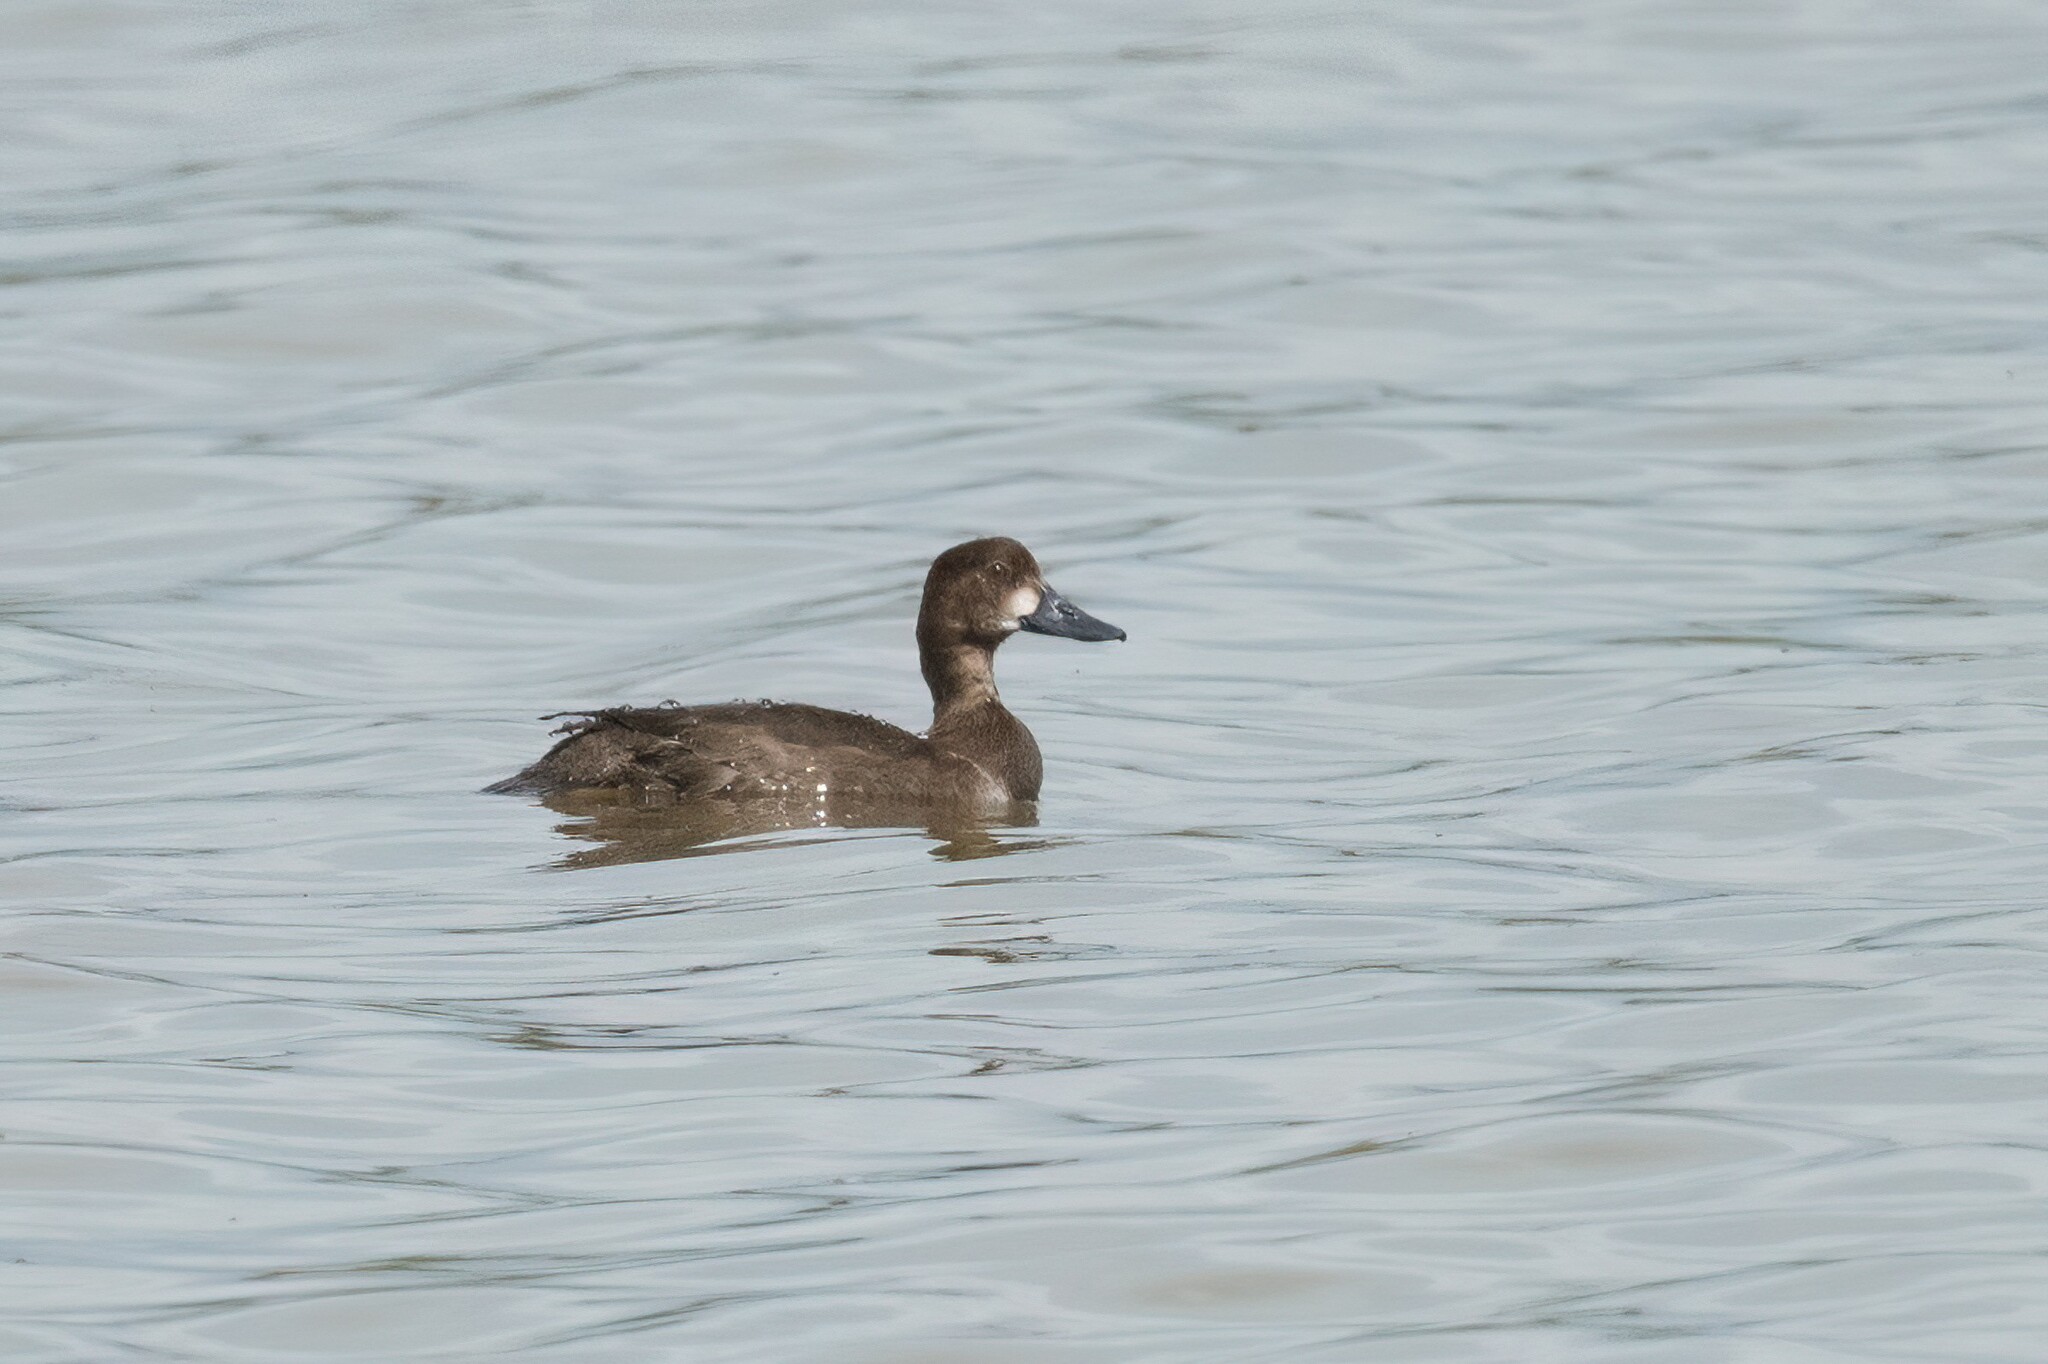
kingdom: Animalia
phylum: Chordata
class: Aves
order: Anseriformes
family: Anatidae
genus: Aythya
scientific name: Aythya affinis
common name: Lesser scaup
